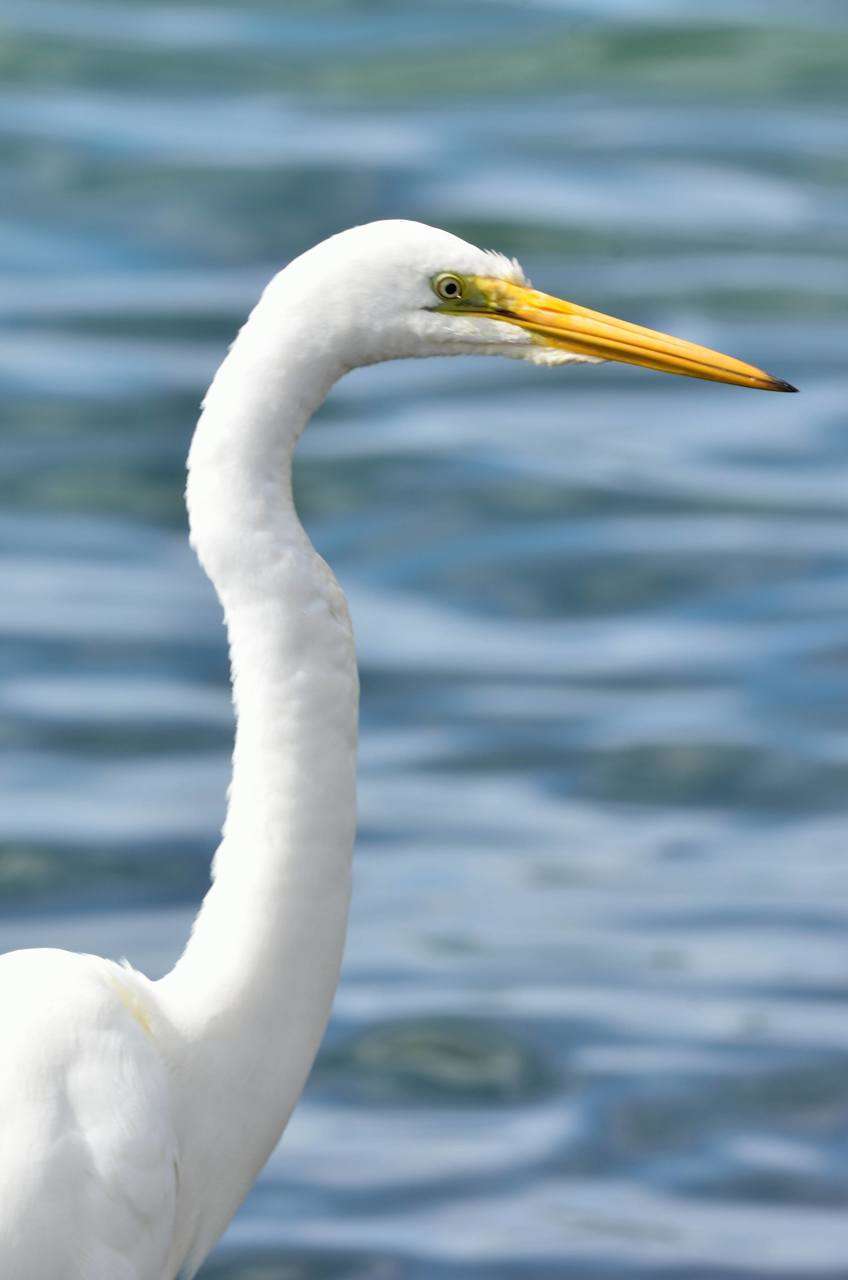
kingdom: Animalia
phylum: Chordata
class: Aves
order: Pelecaniformes
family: Ardeidae
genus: Ardea
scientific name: Ardea modesta
